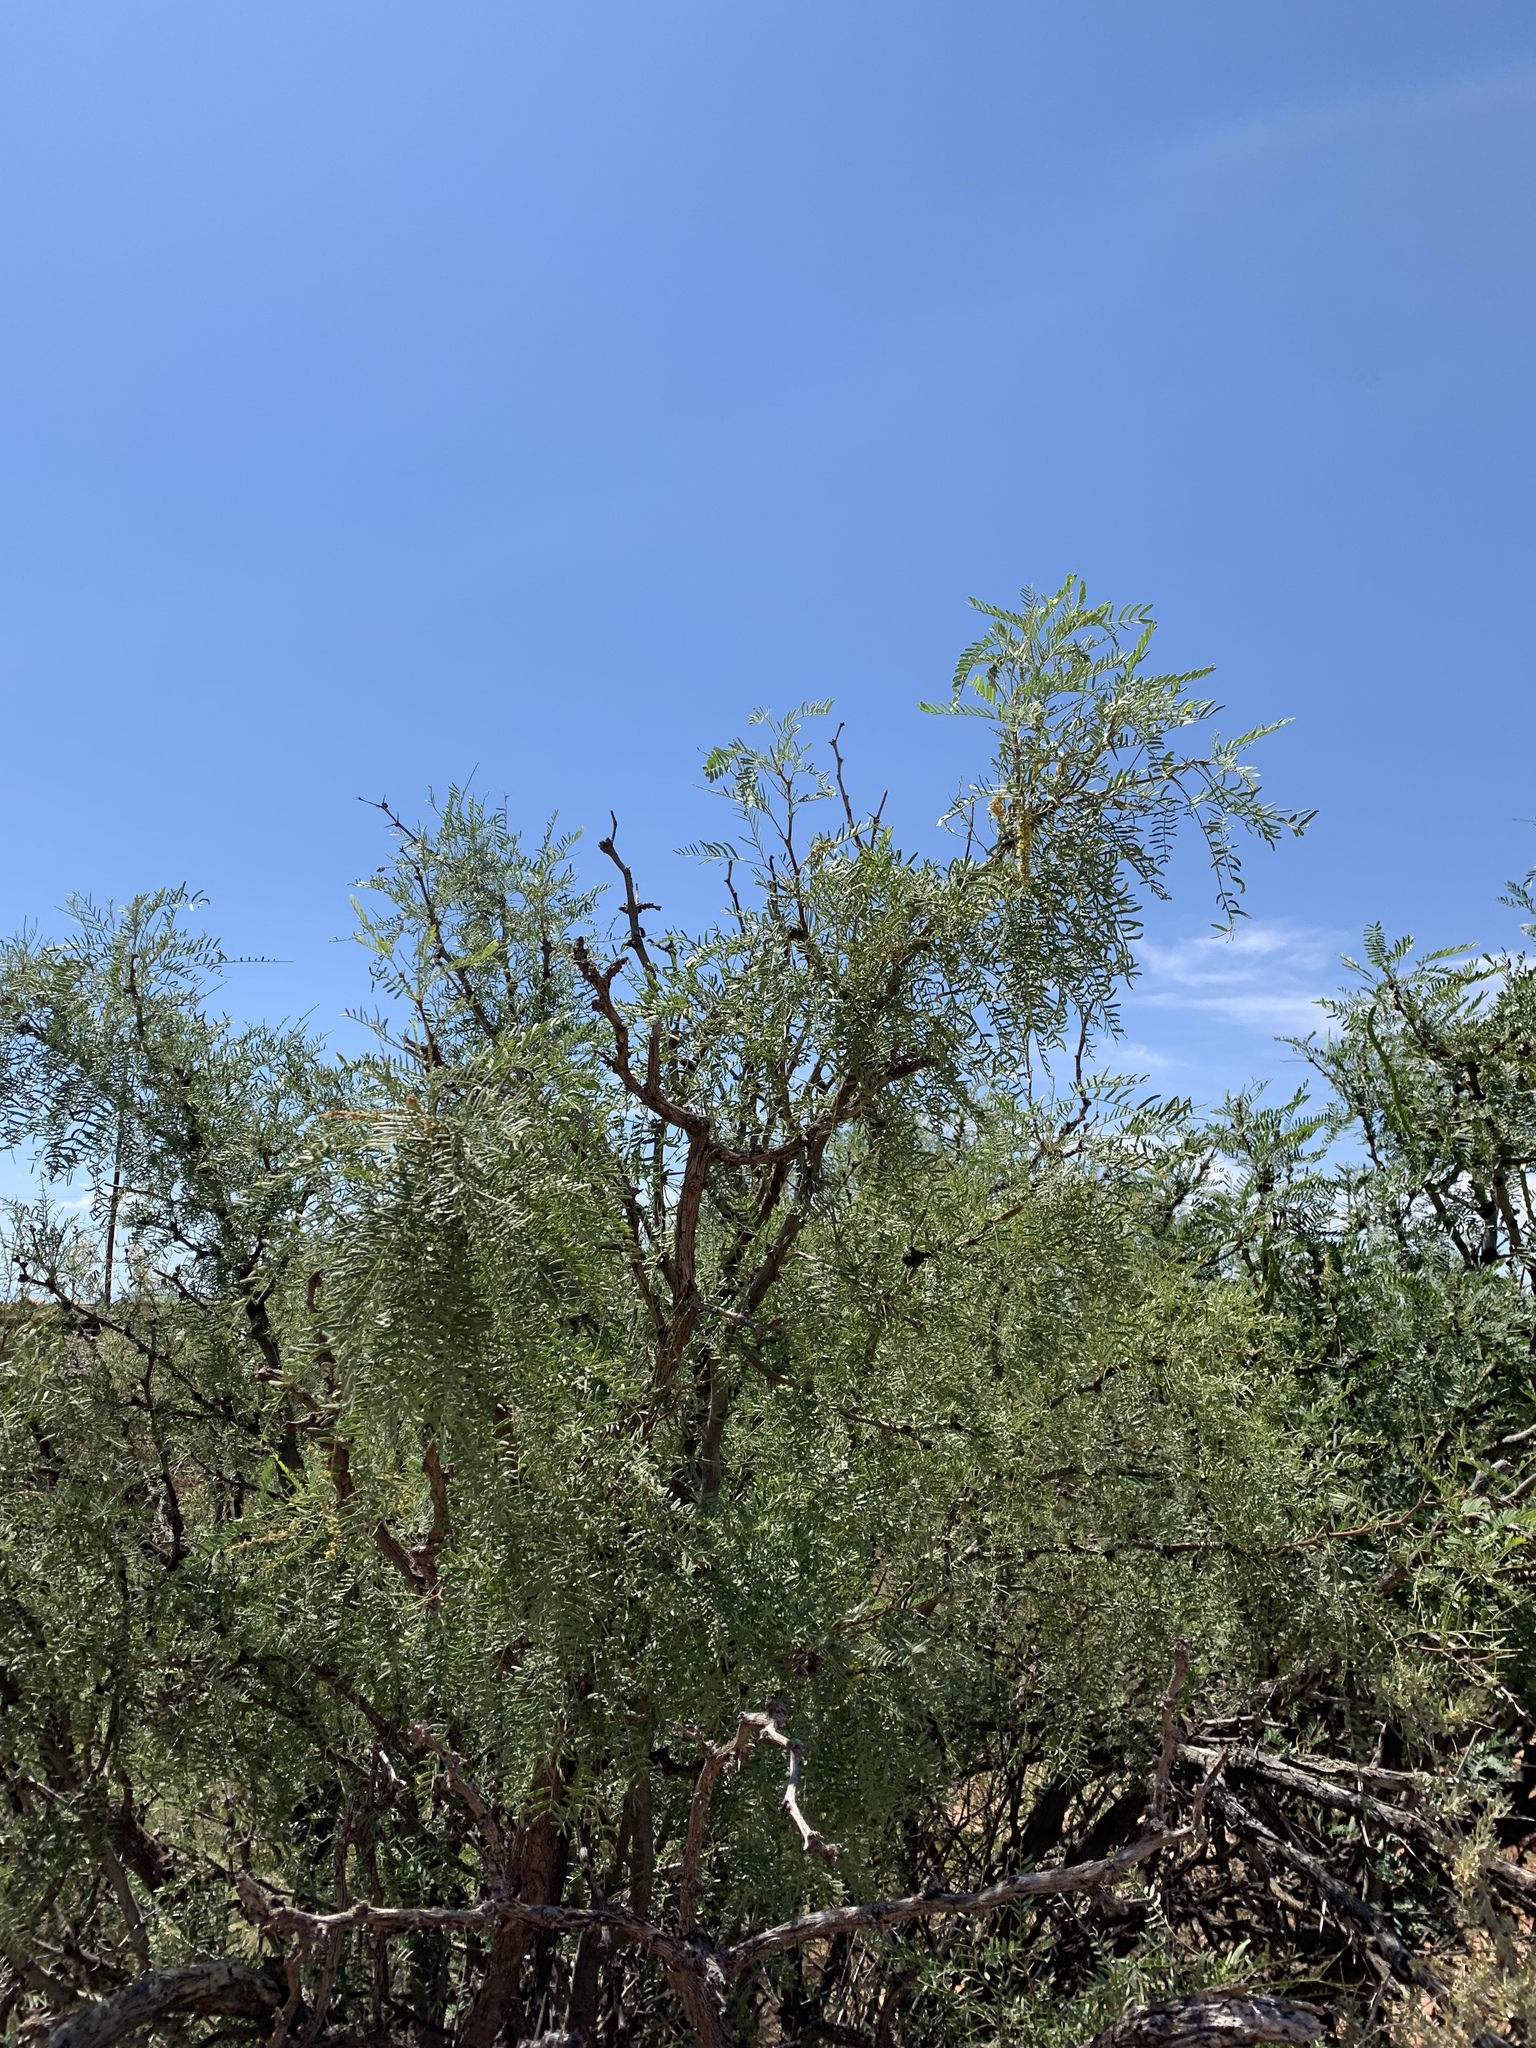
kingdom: Plantae
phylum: Tracheophyta
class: Magnoliopsida
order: Fabales
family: Fabaceae
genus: Prosopis
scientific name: Prosopis glandulosa
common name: Honey mesquite
